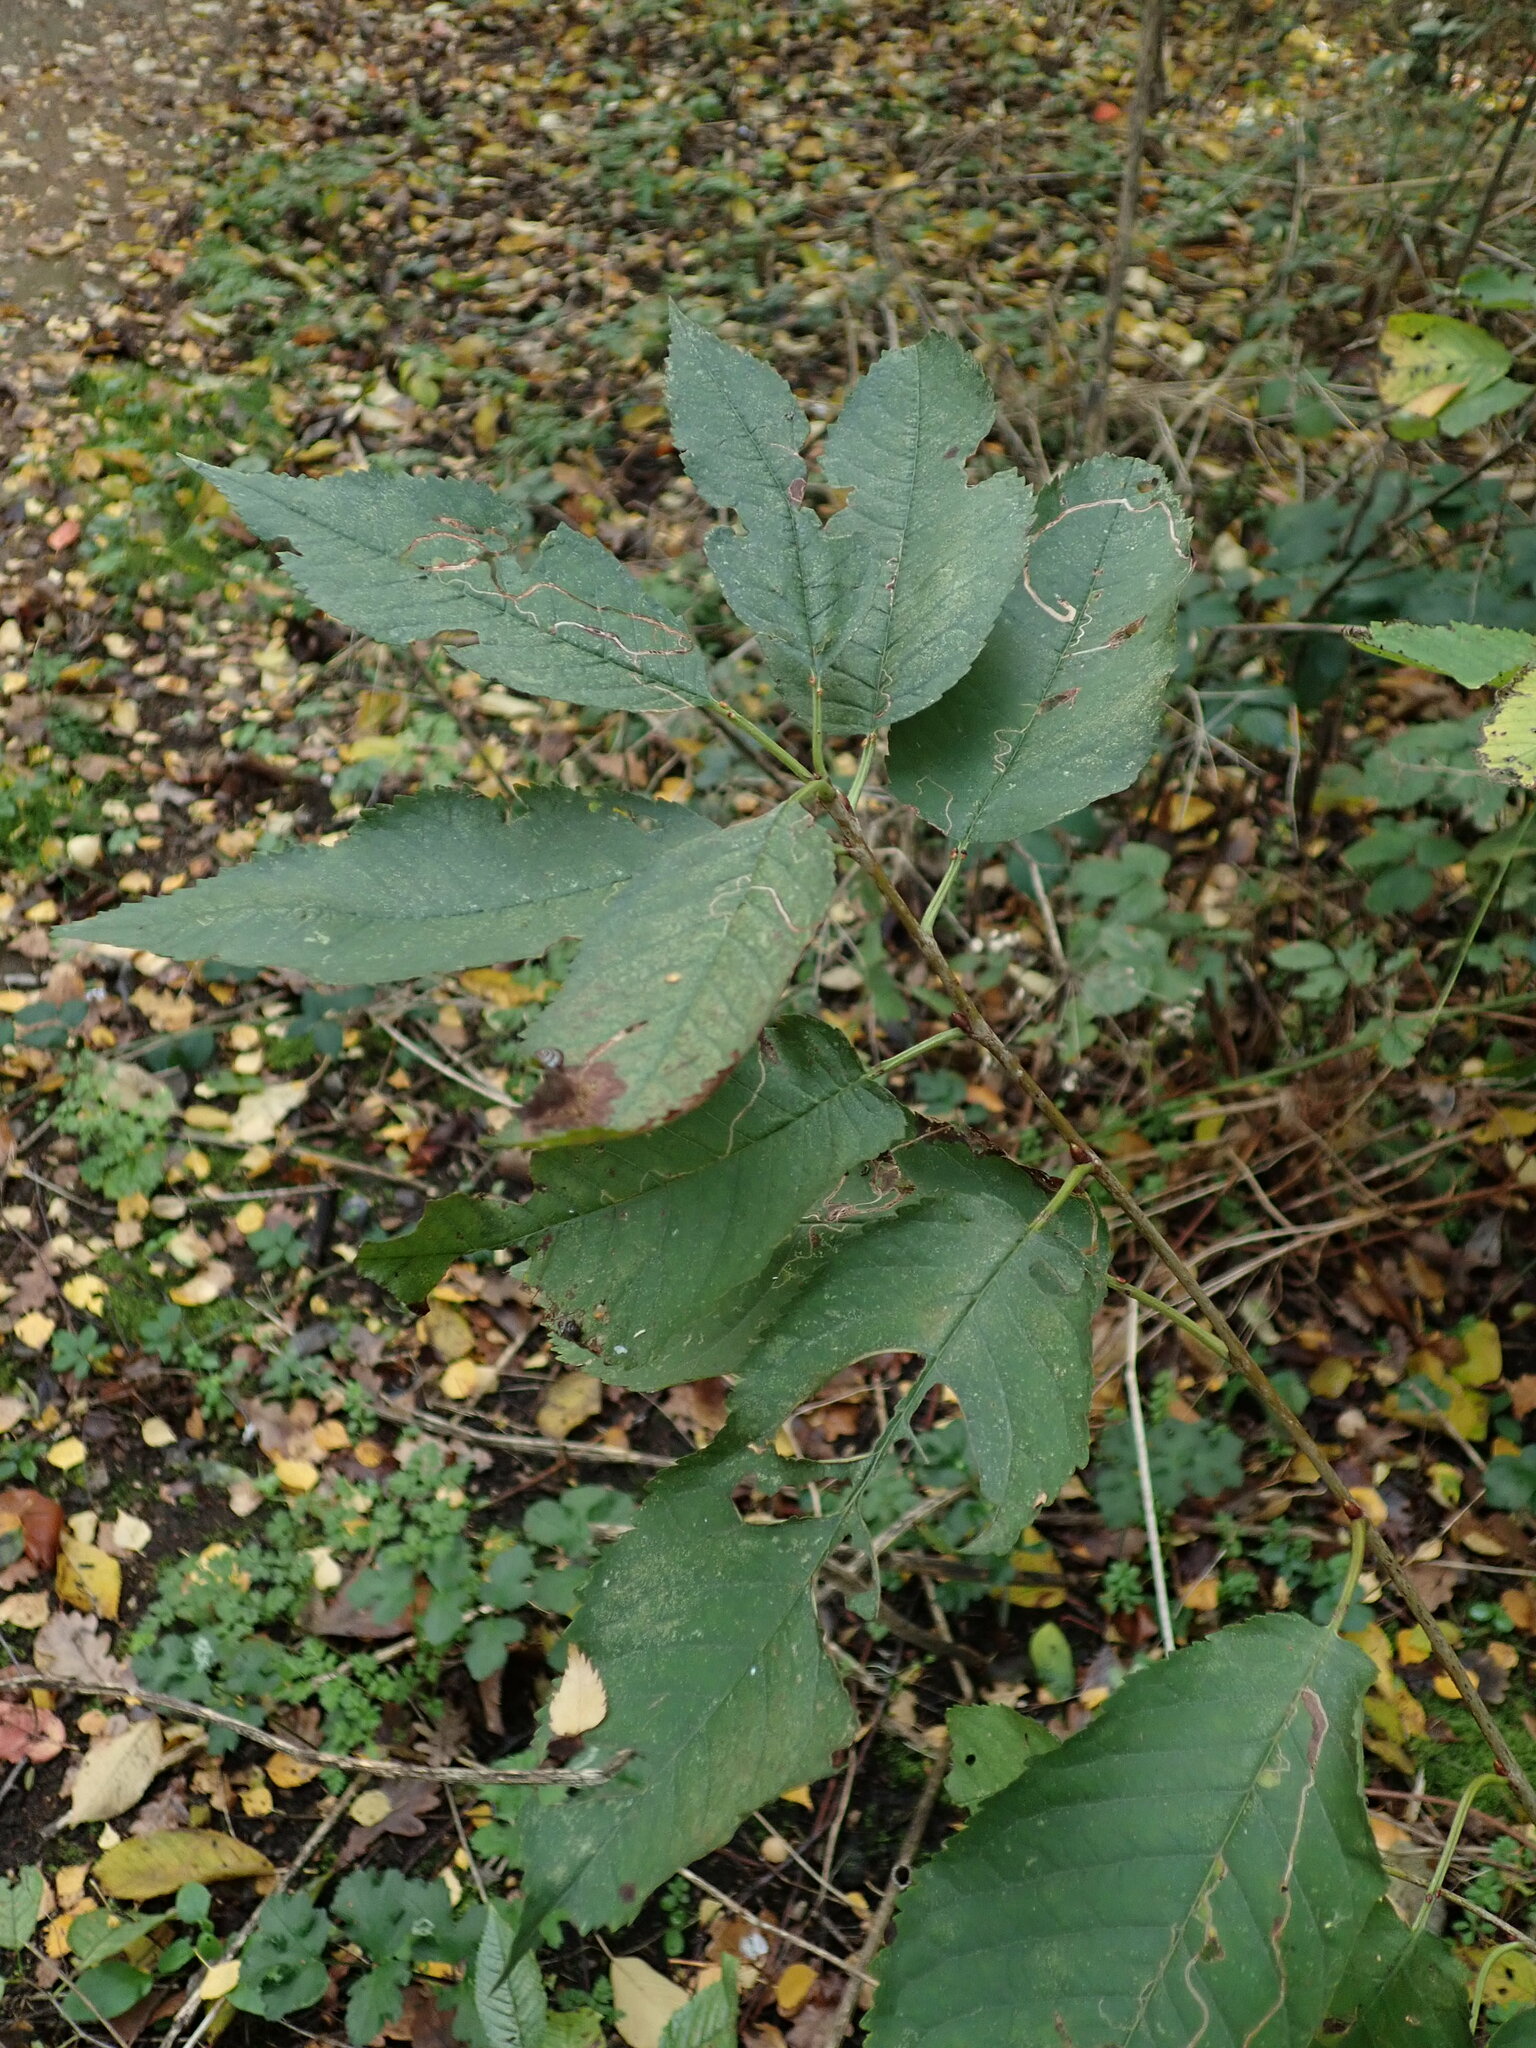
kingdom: Plantae
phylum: Tracheophyta
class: Magnoliopsida
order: Rosales
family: Rosaceae
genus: Prunus
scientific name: Prunus avium
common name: Sweet cherry
